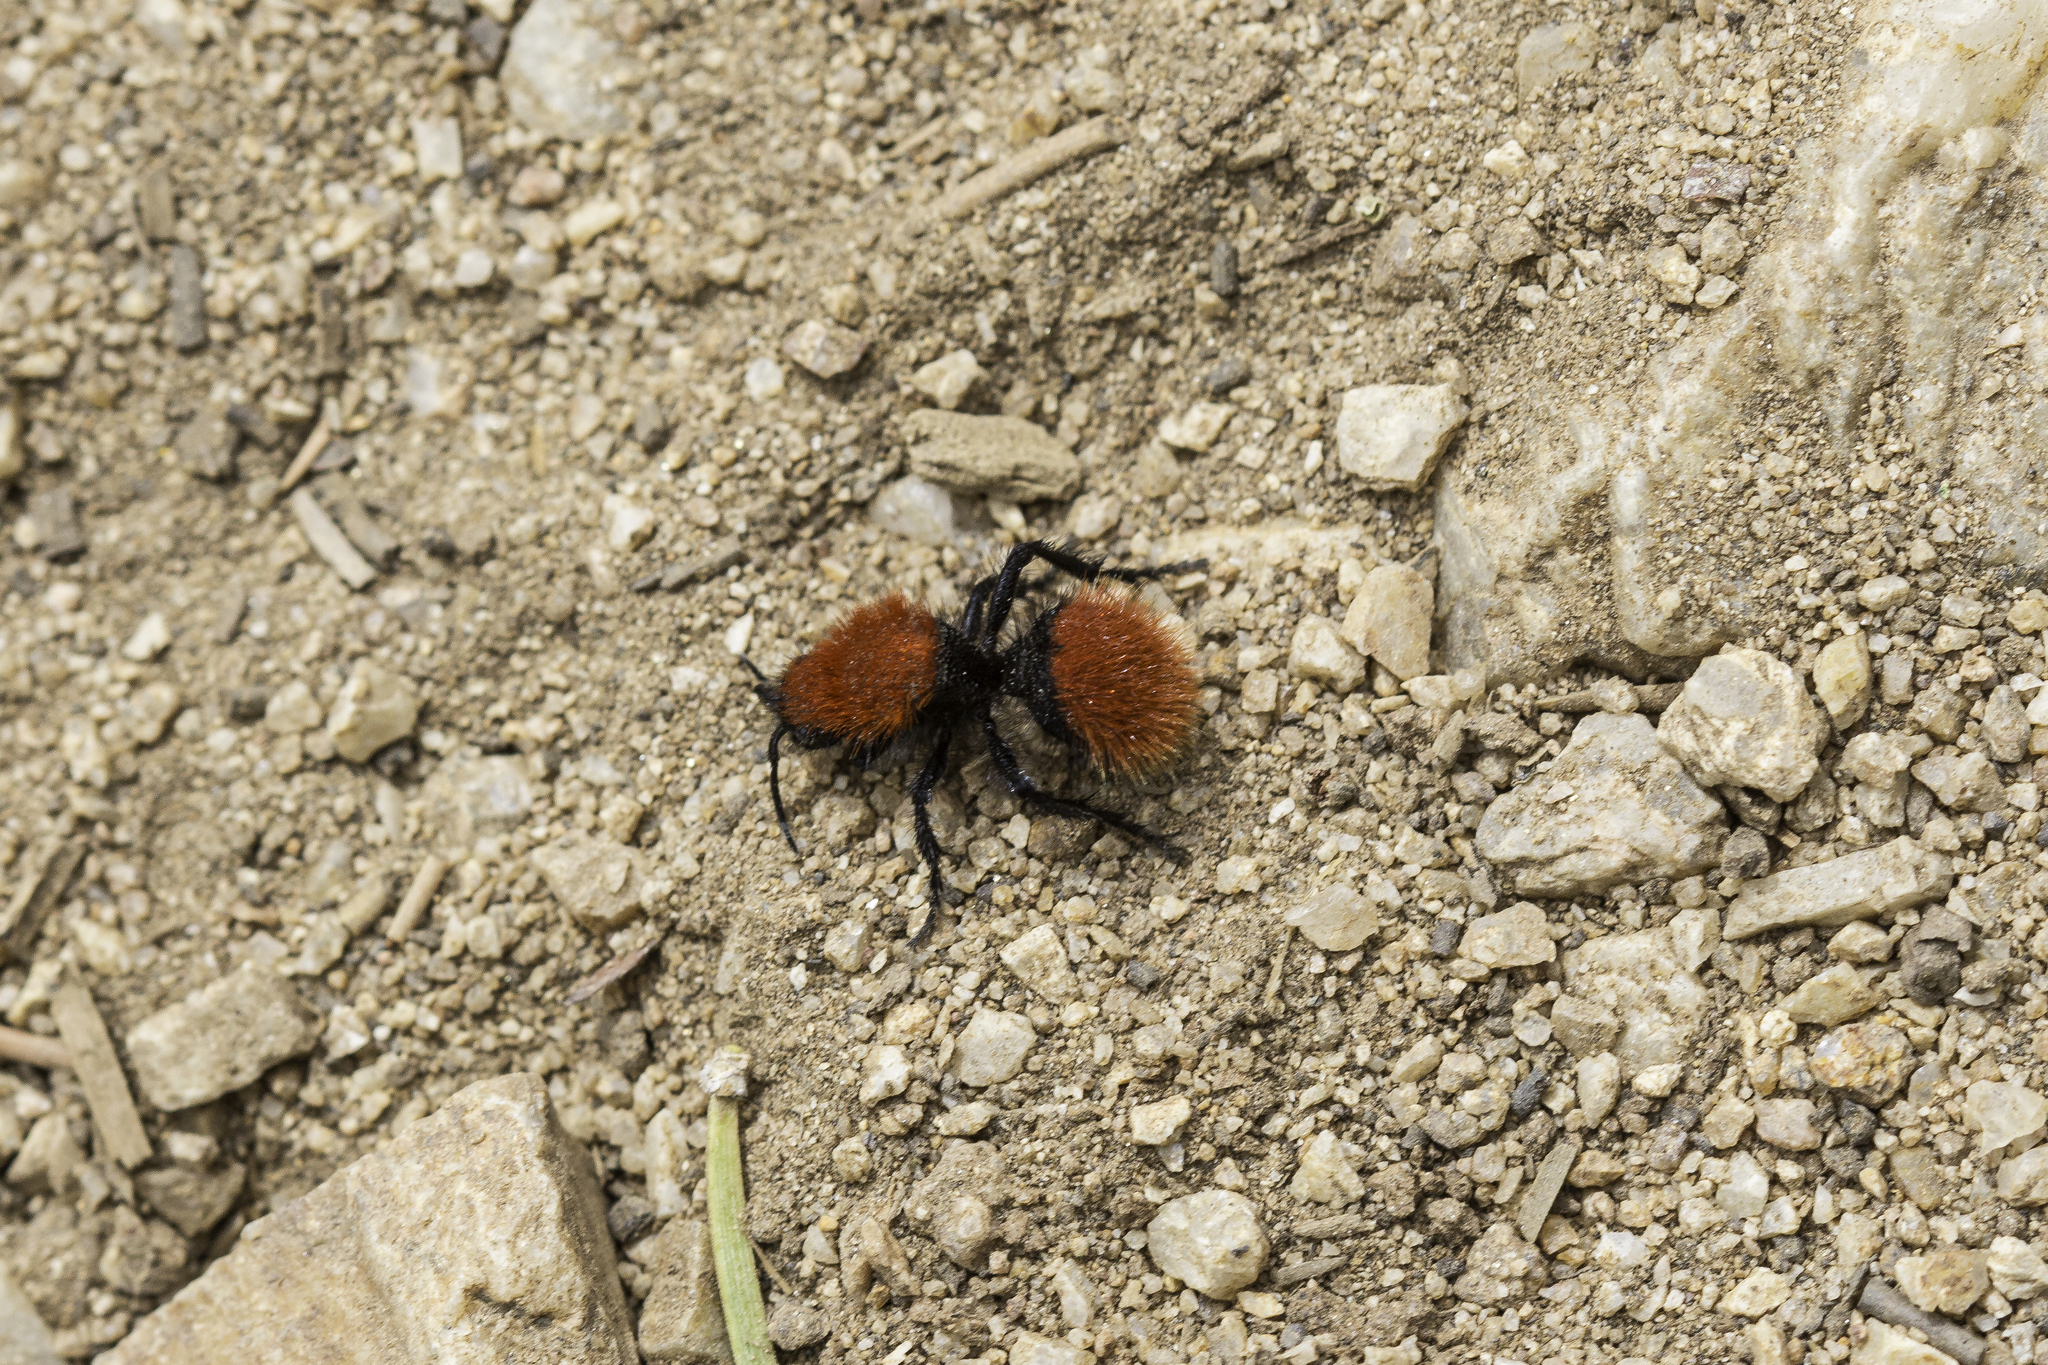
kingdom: Animalia
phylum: Arthropoda
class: Insecta
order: Hymenoptera
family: Mutillidae
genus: Dasymutilla
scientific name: Dasymutilla vestita
